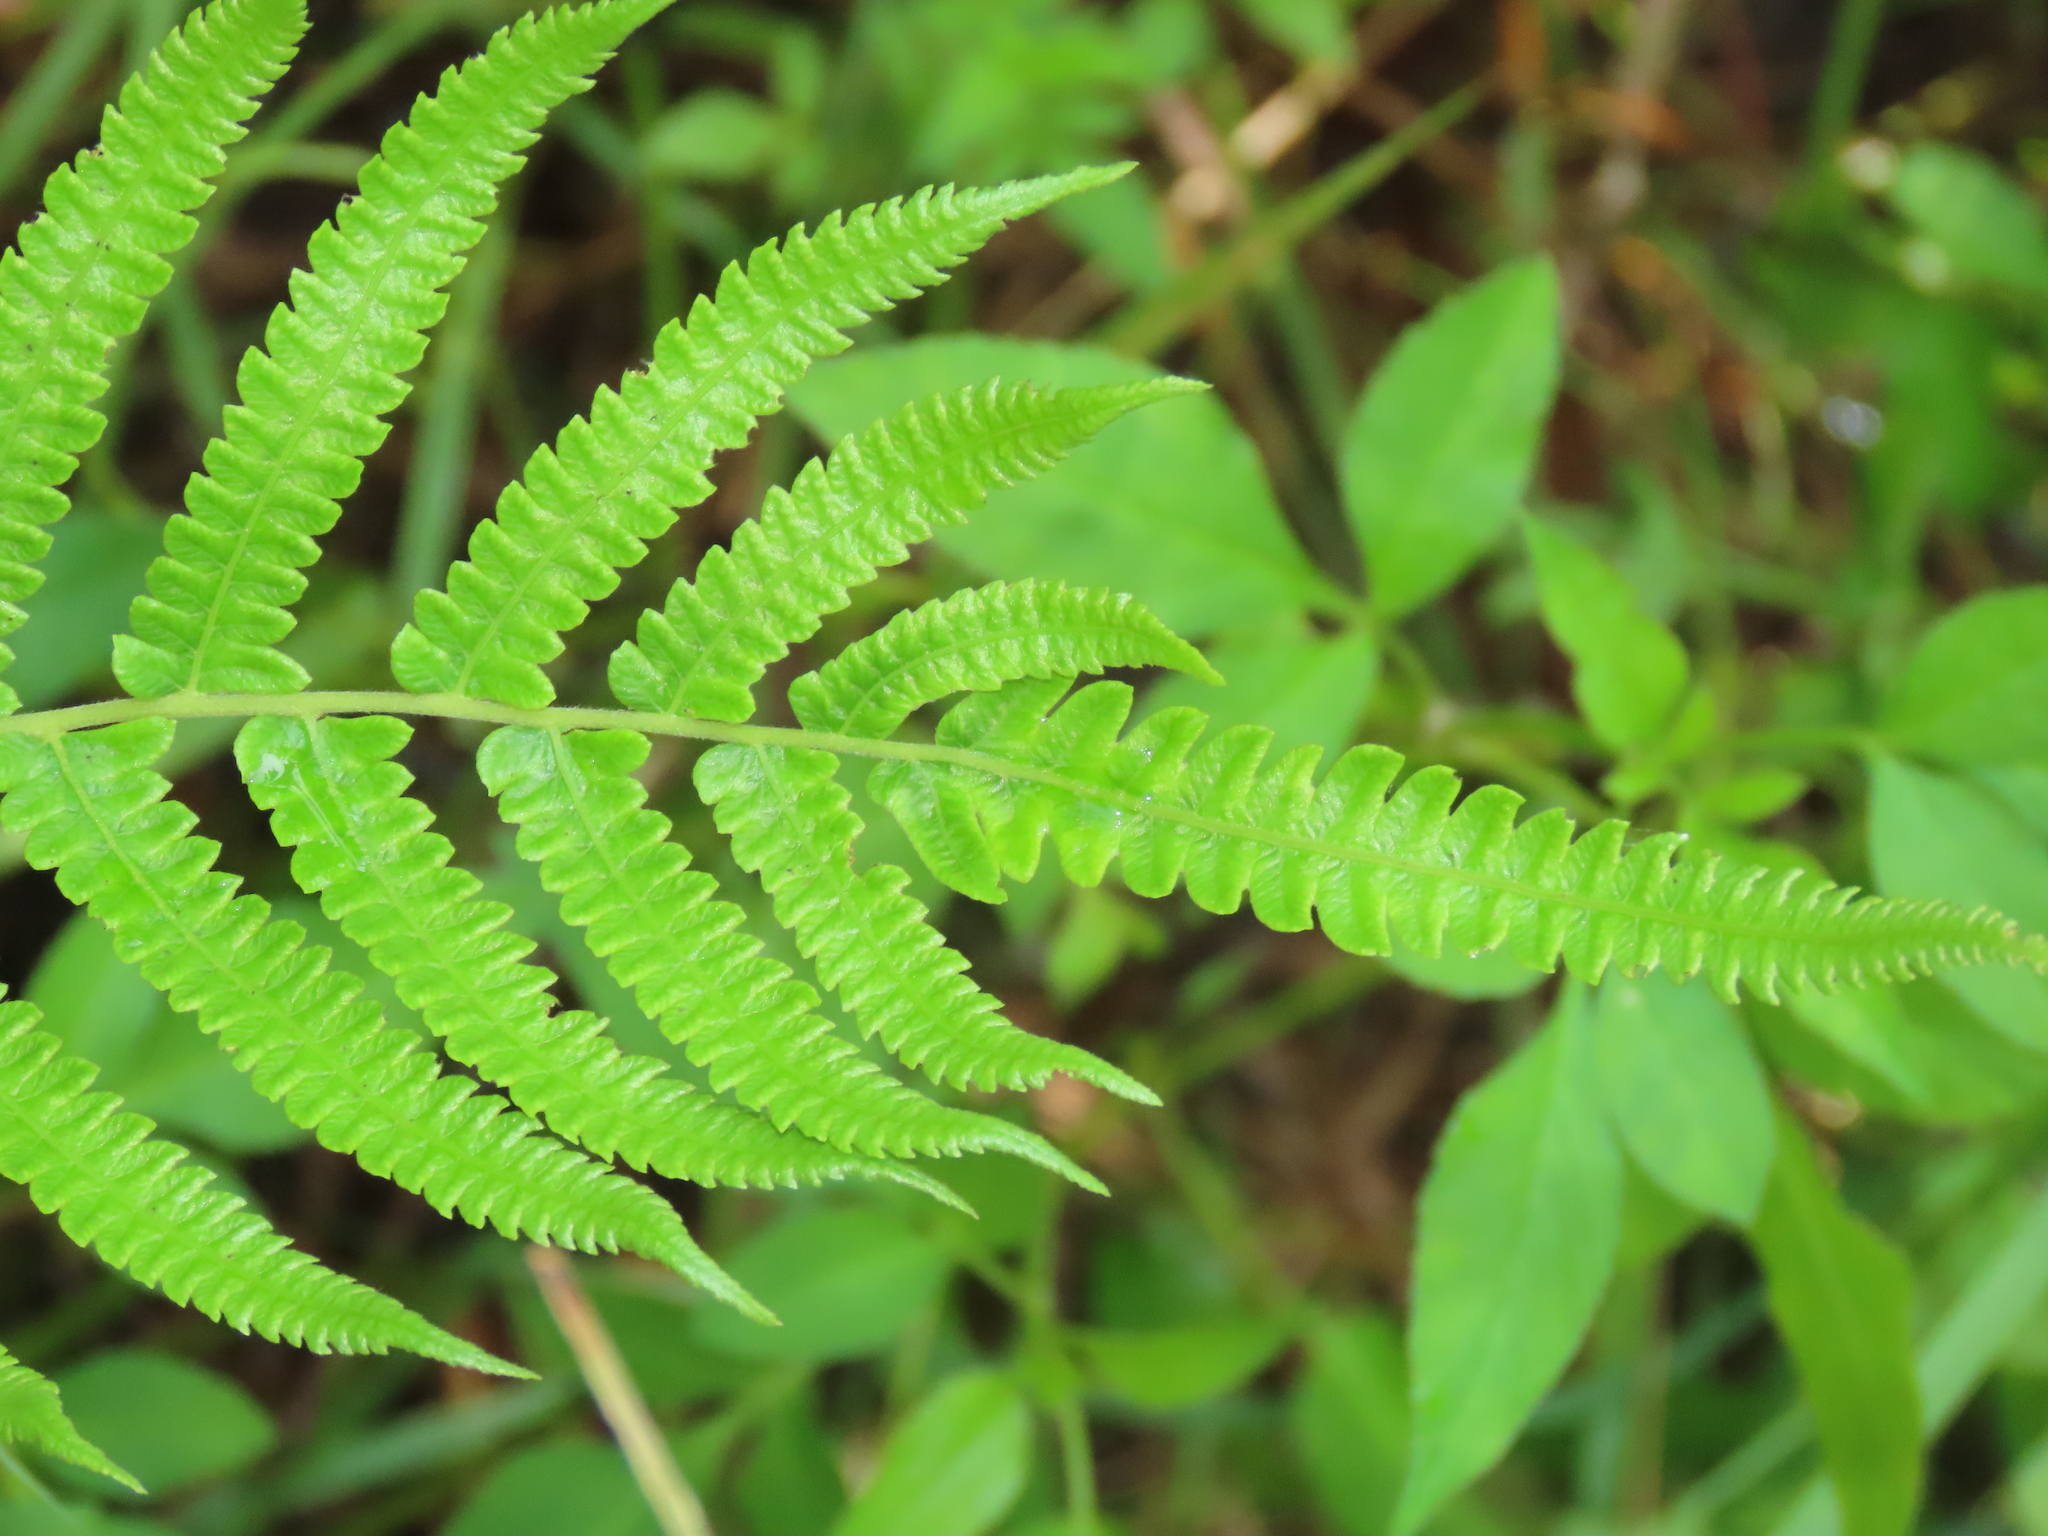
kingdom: Plantae
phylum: Tracheophyta
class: Polypodiopsida
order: Polypodiales
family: Thelypteridaceae
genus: Christella
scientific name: Christella acuminata
